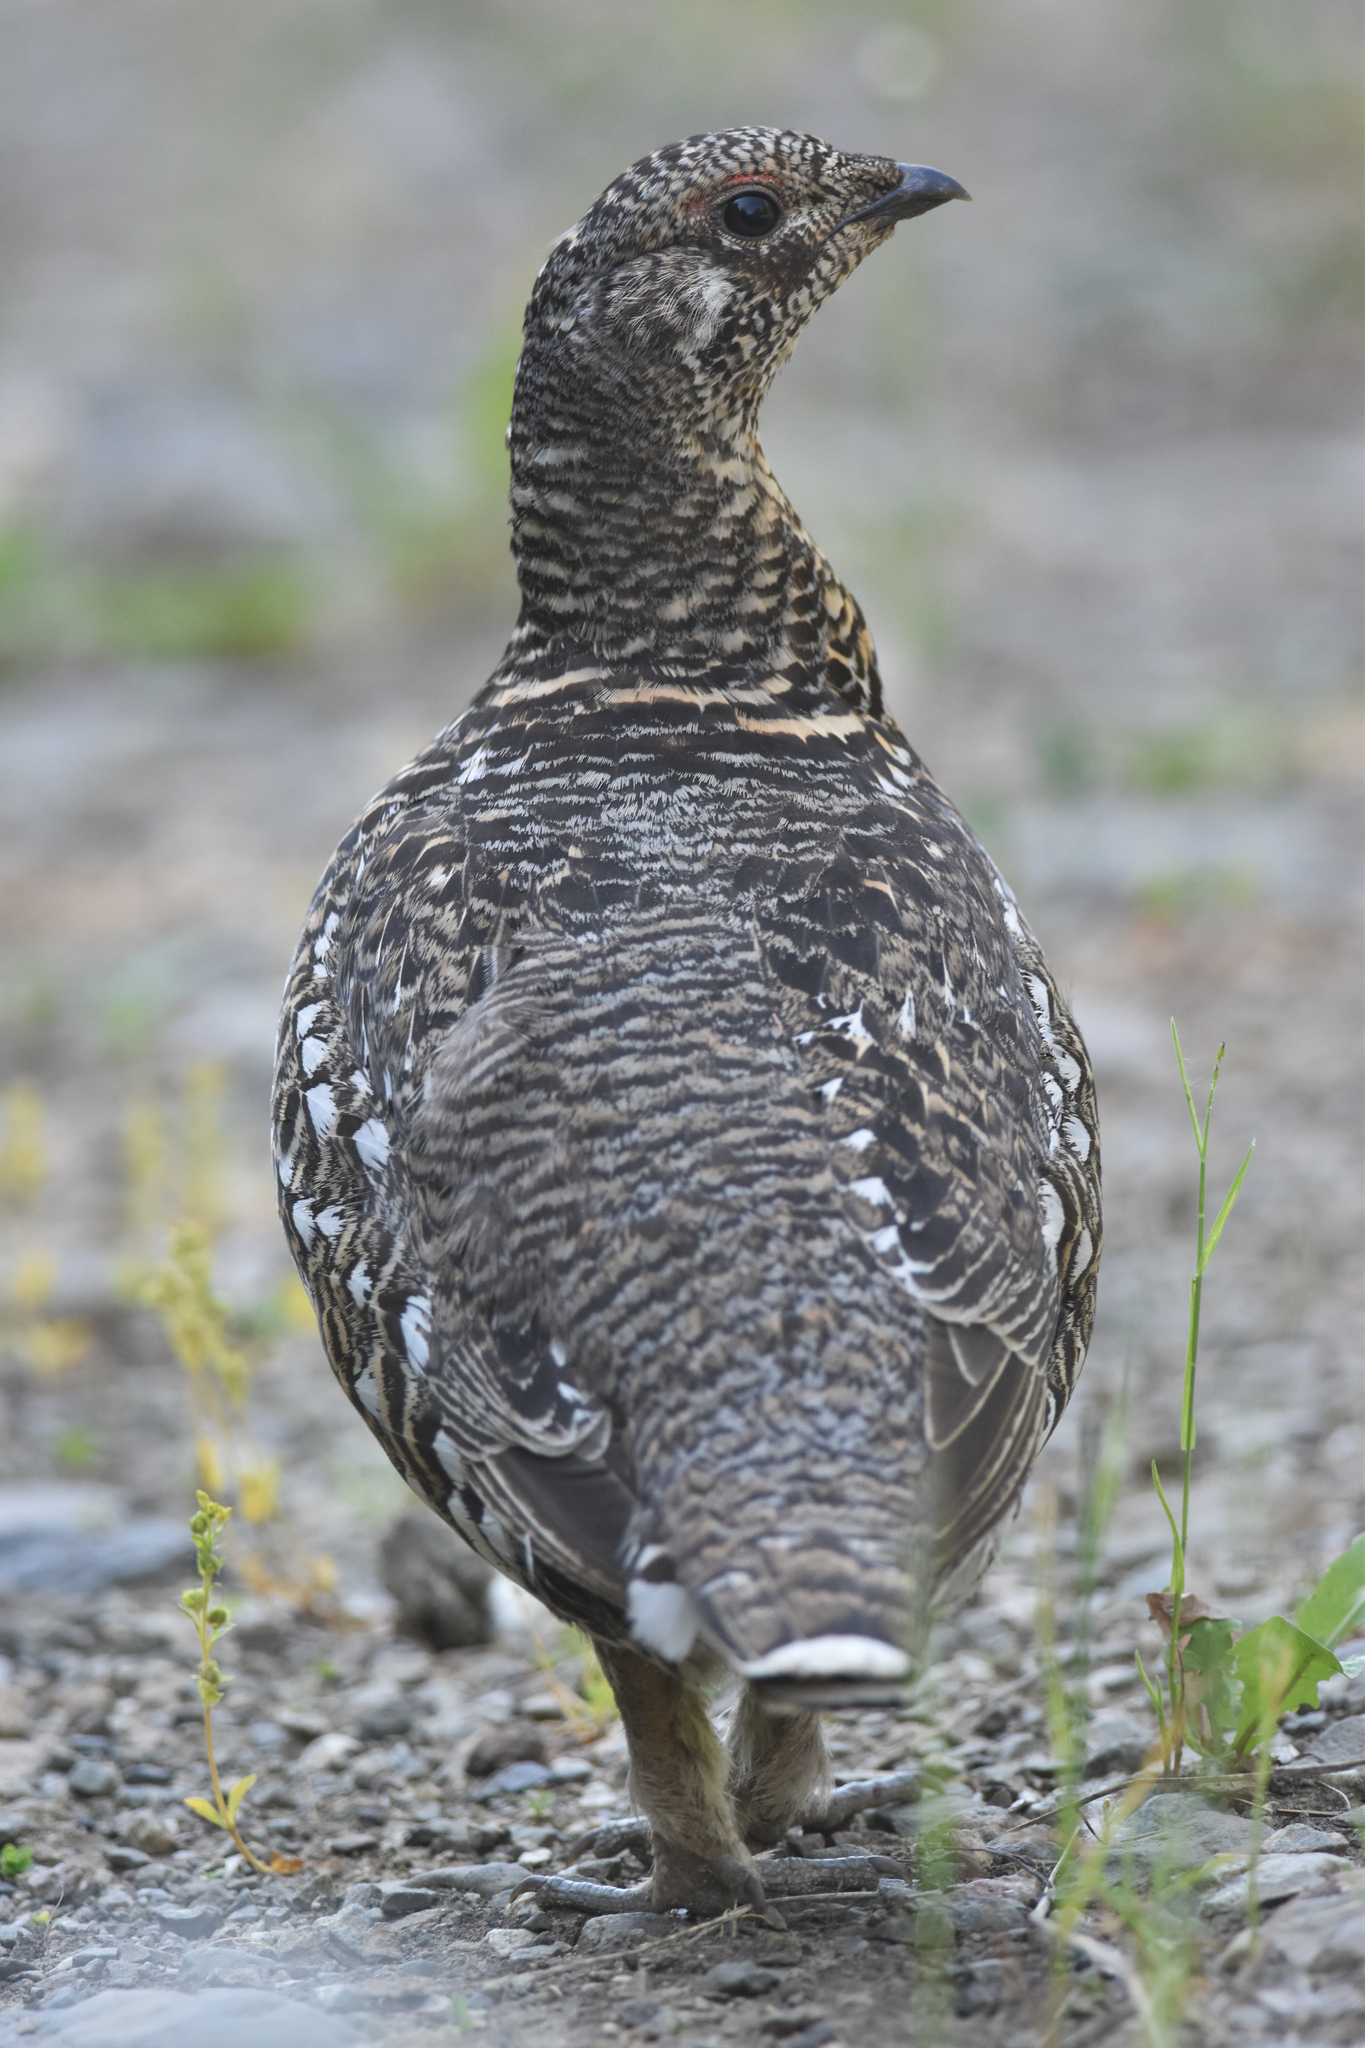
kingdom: Animalia
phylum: Chordata
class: Aves
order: Galliformes
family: Phasianidae
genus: Canachites
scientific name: Canachites canadensis
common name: Spruce grouse
